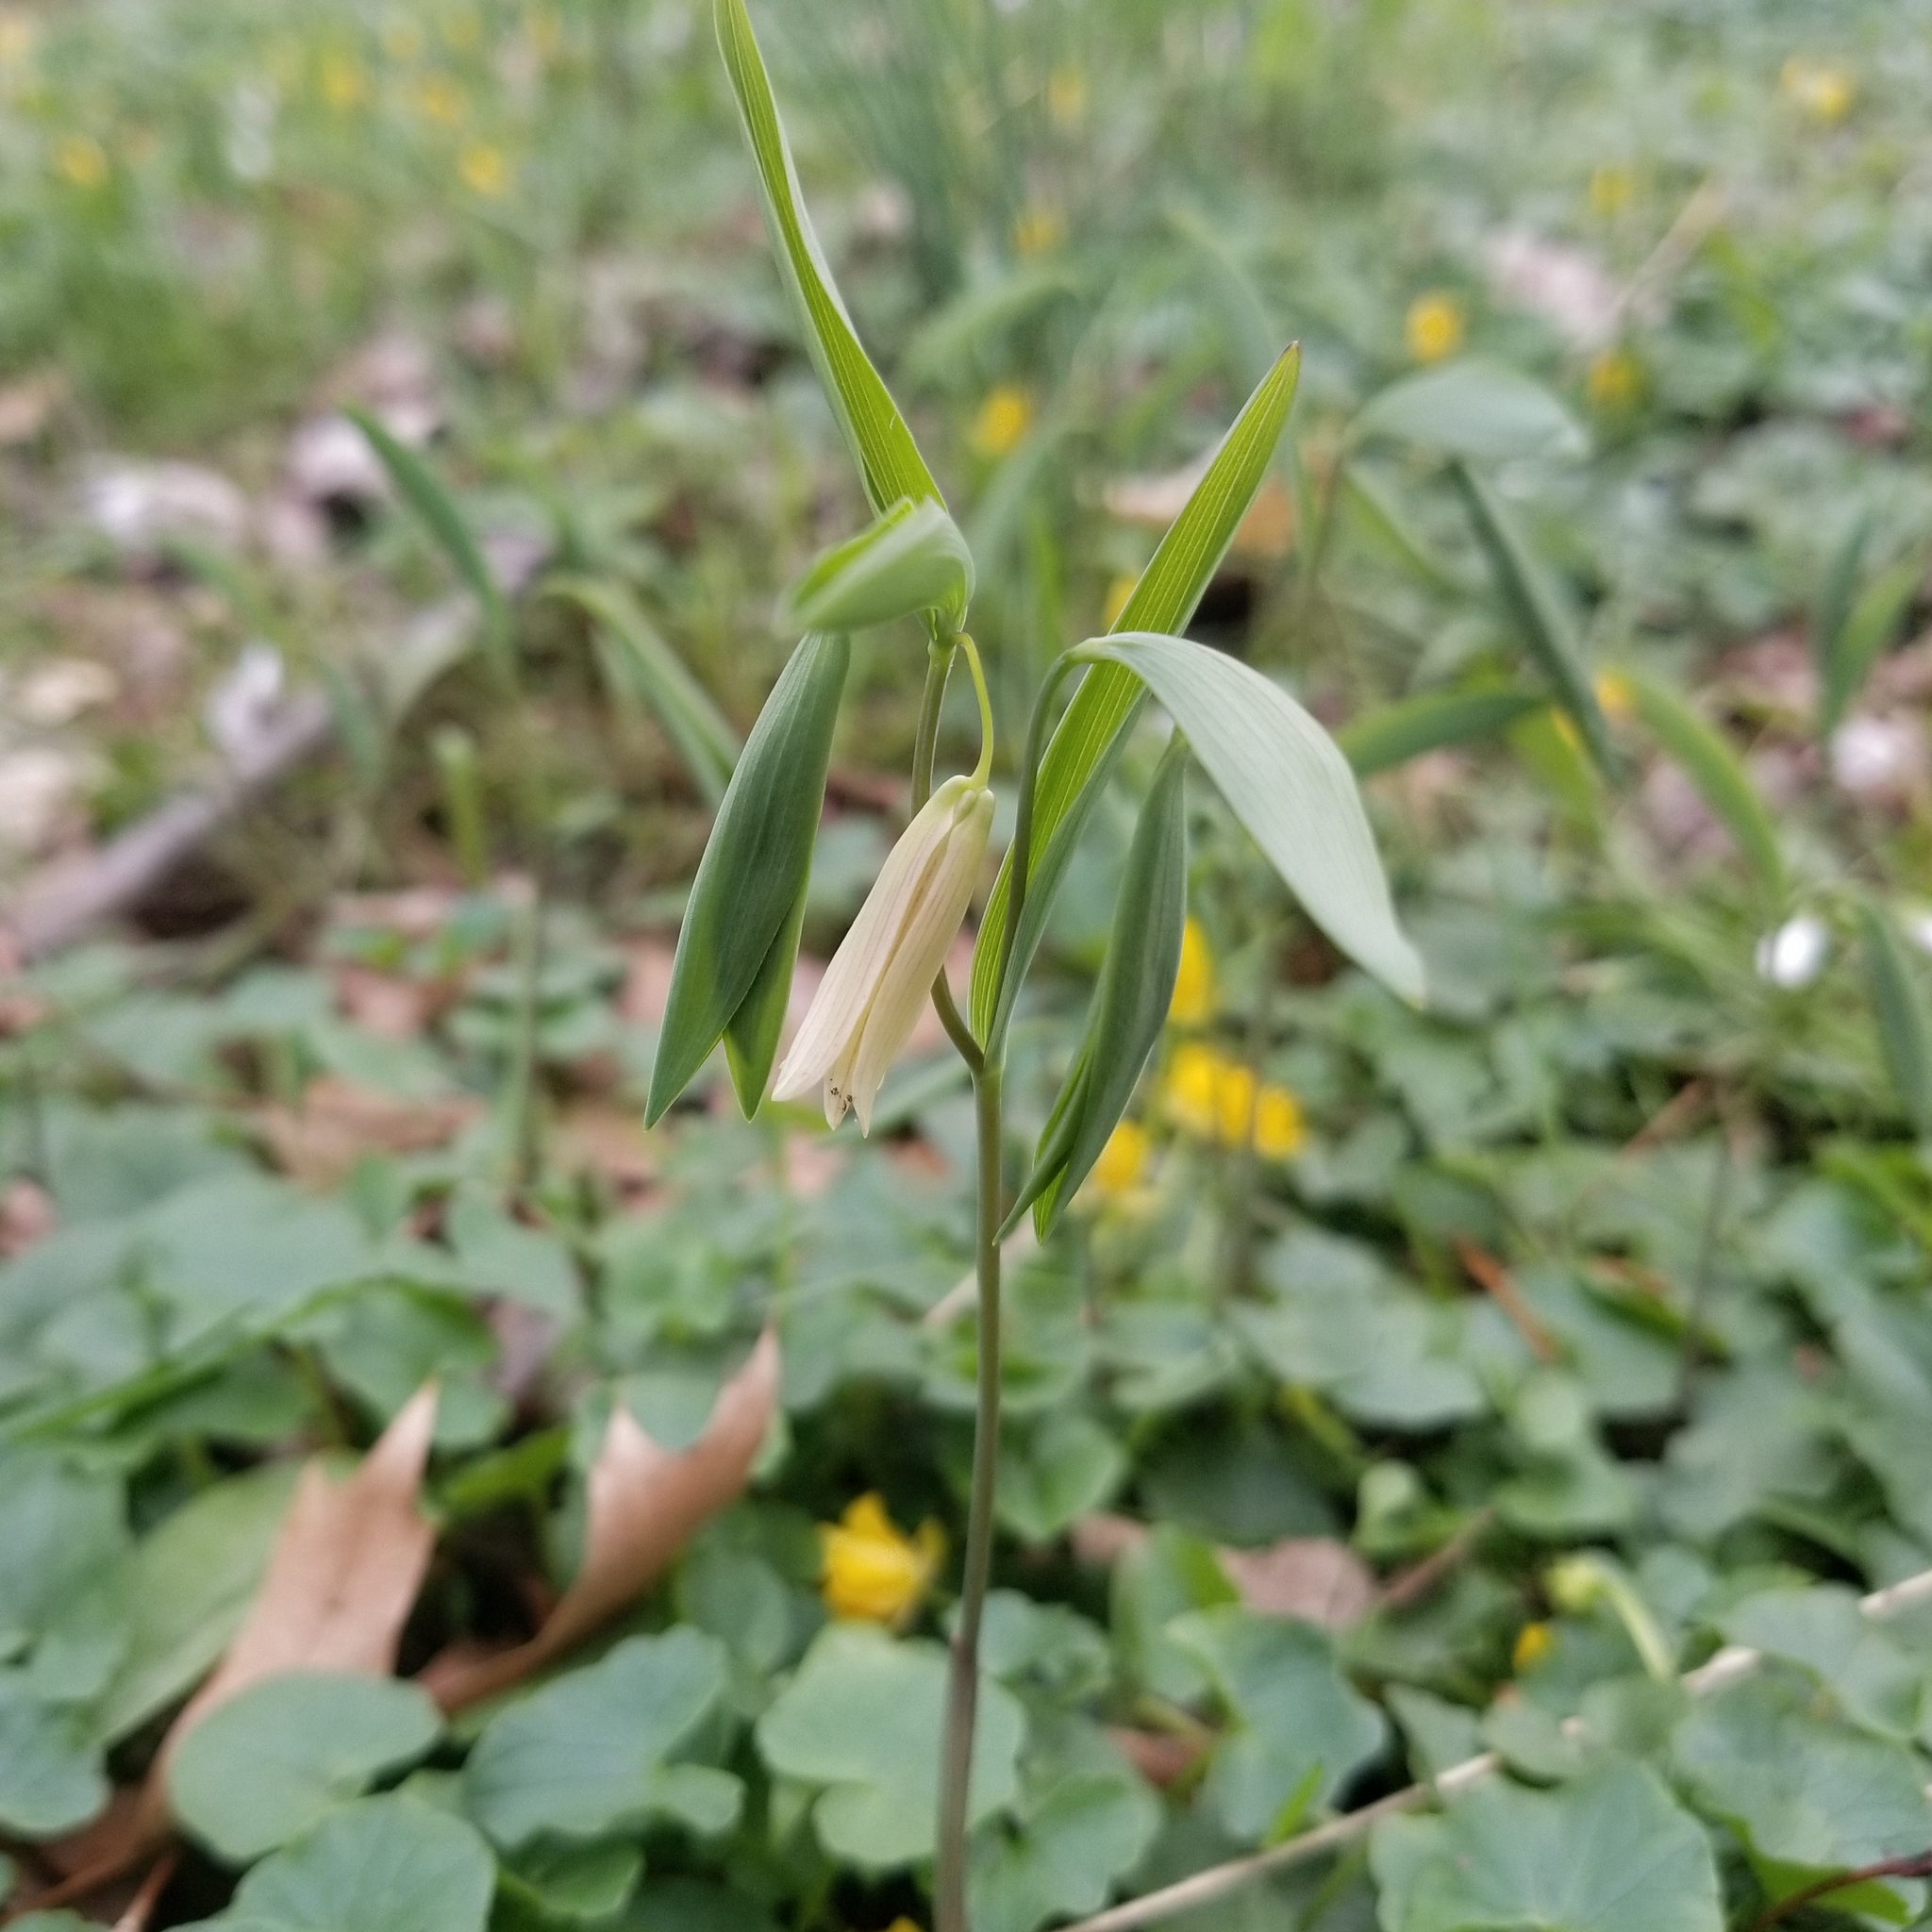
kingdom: Plantae
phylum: Tracheophyta
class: Liliopsida
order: Liliales
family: Colchicaceae
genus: Uvularia
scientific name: Uvularia sessilifolia
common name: Straw-lily
